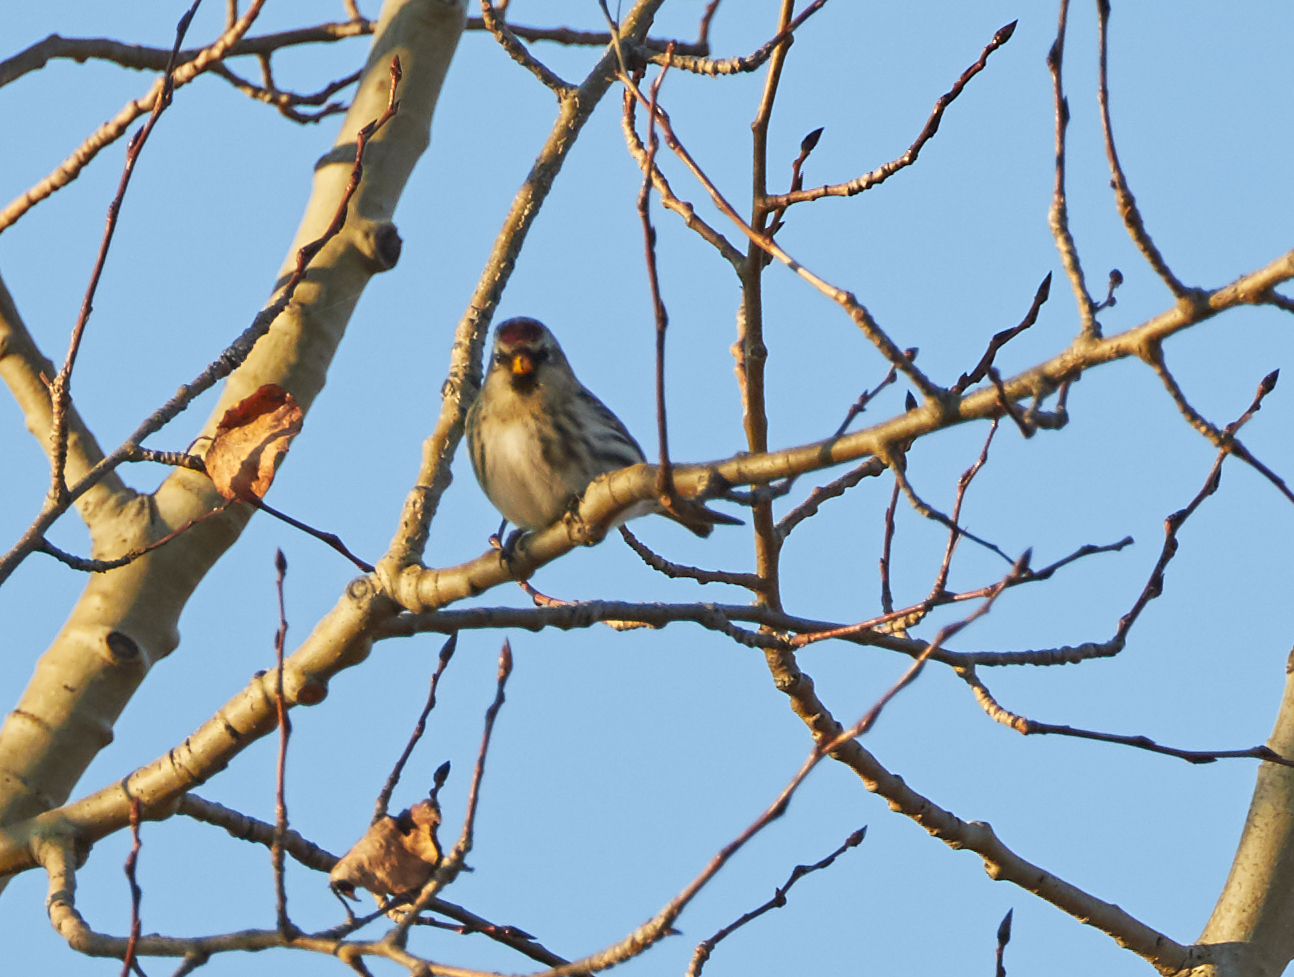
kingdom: Animalia
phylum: Chordata
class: Aves
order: Passeriformes
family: Fringillidae
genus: Acanthis
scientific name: Acanthis flammea
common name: Common redpoll
